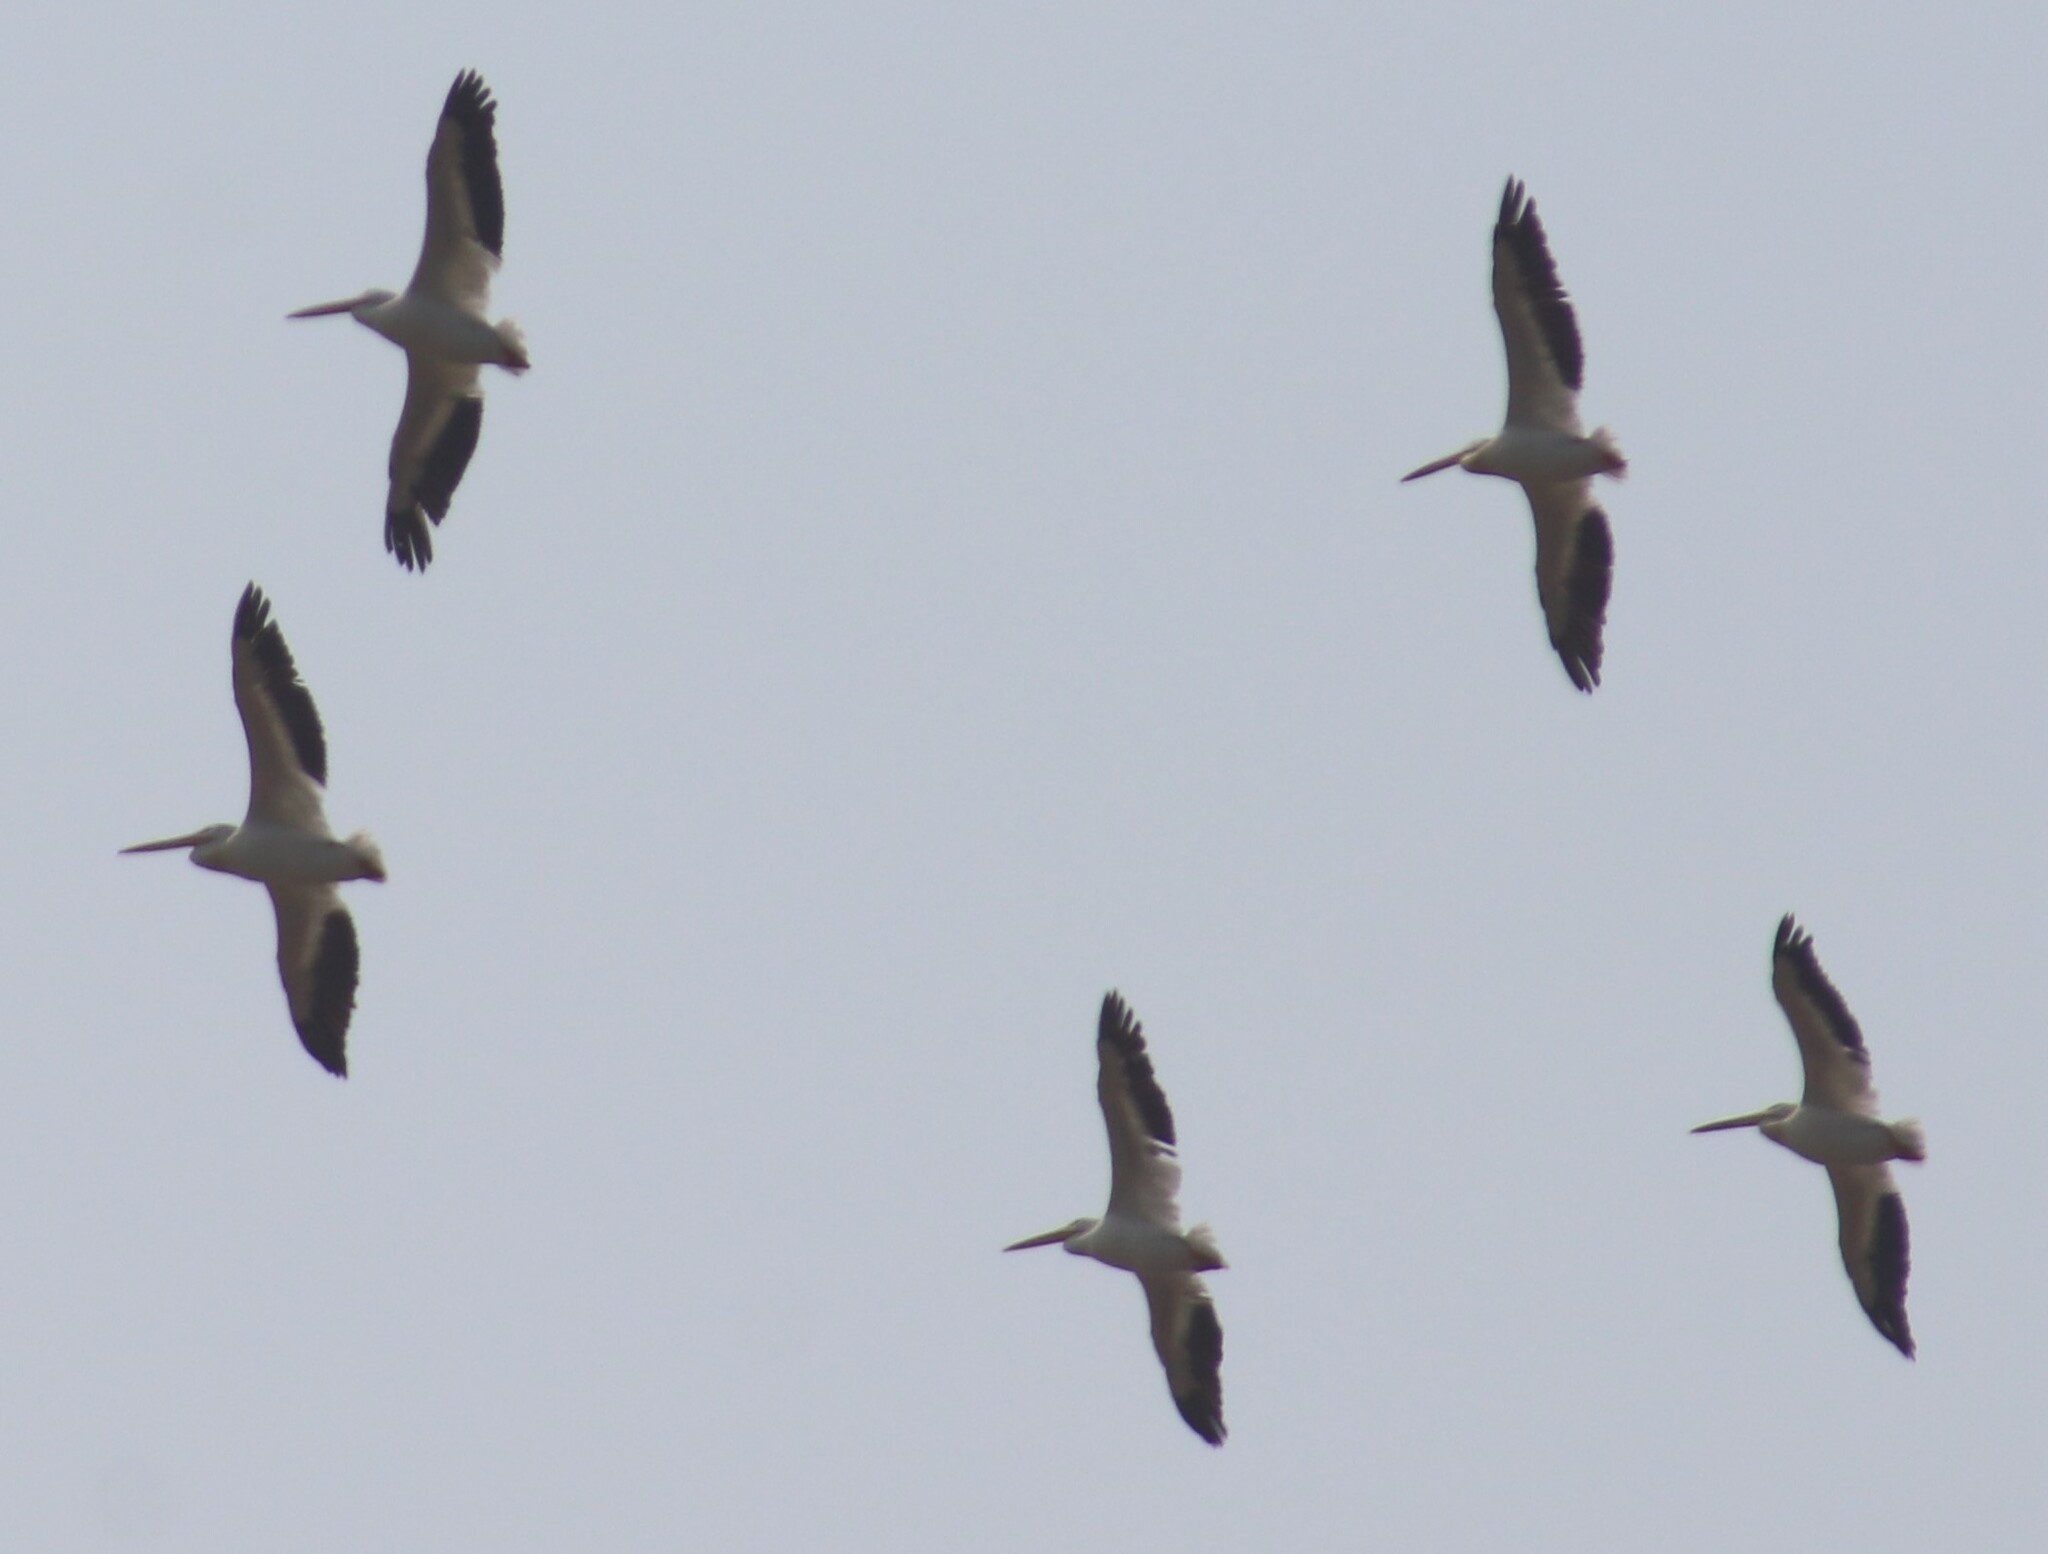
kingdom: Animalia
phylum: Chordata
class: Aves
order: Pelecaniformes
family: Pelecanidae
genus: Pelecanus
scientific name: Pelecanus erythrorhynchos
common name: American white pelican
